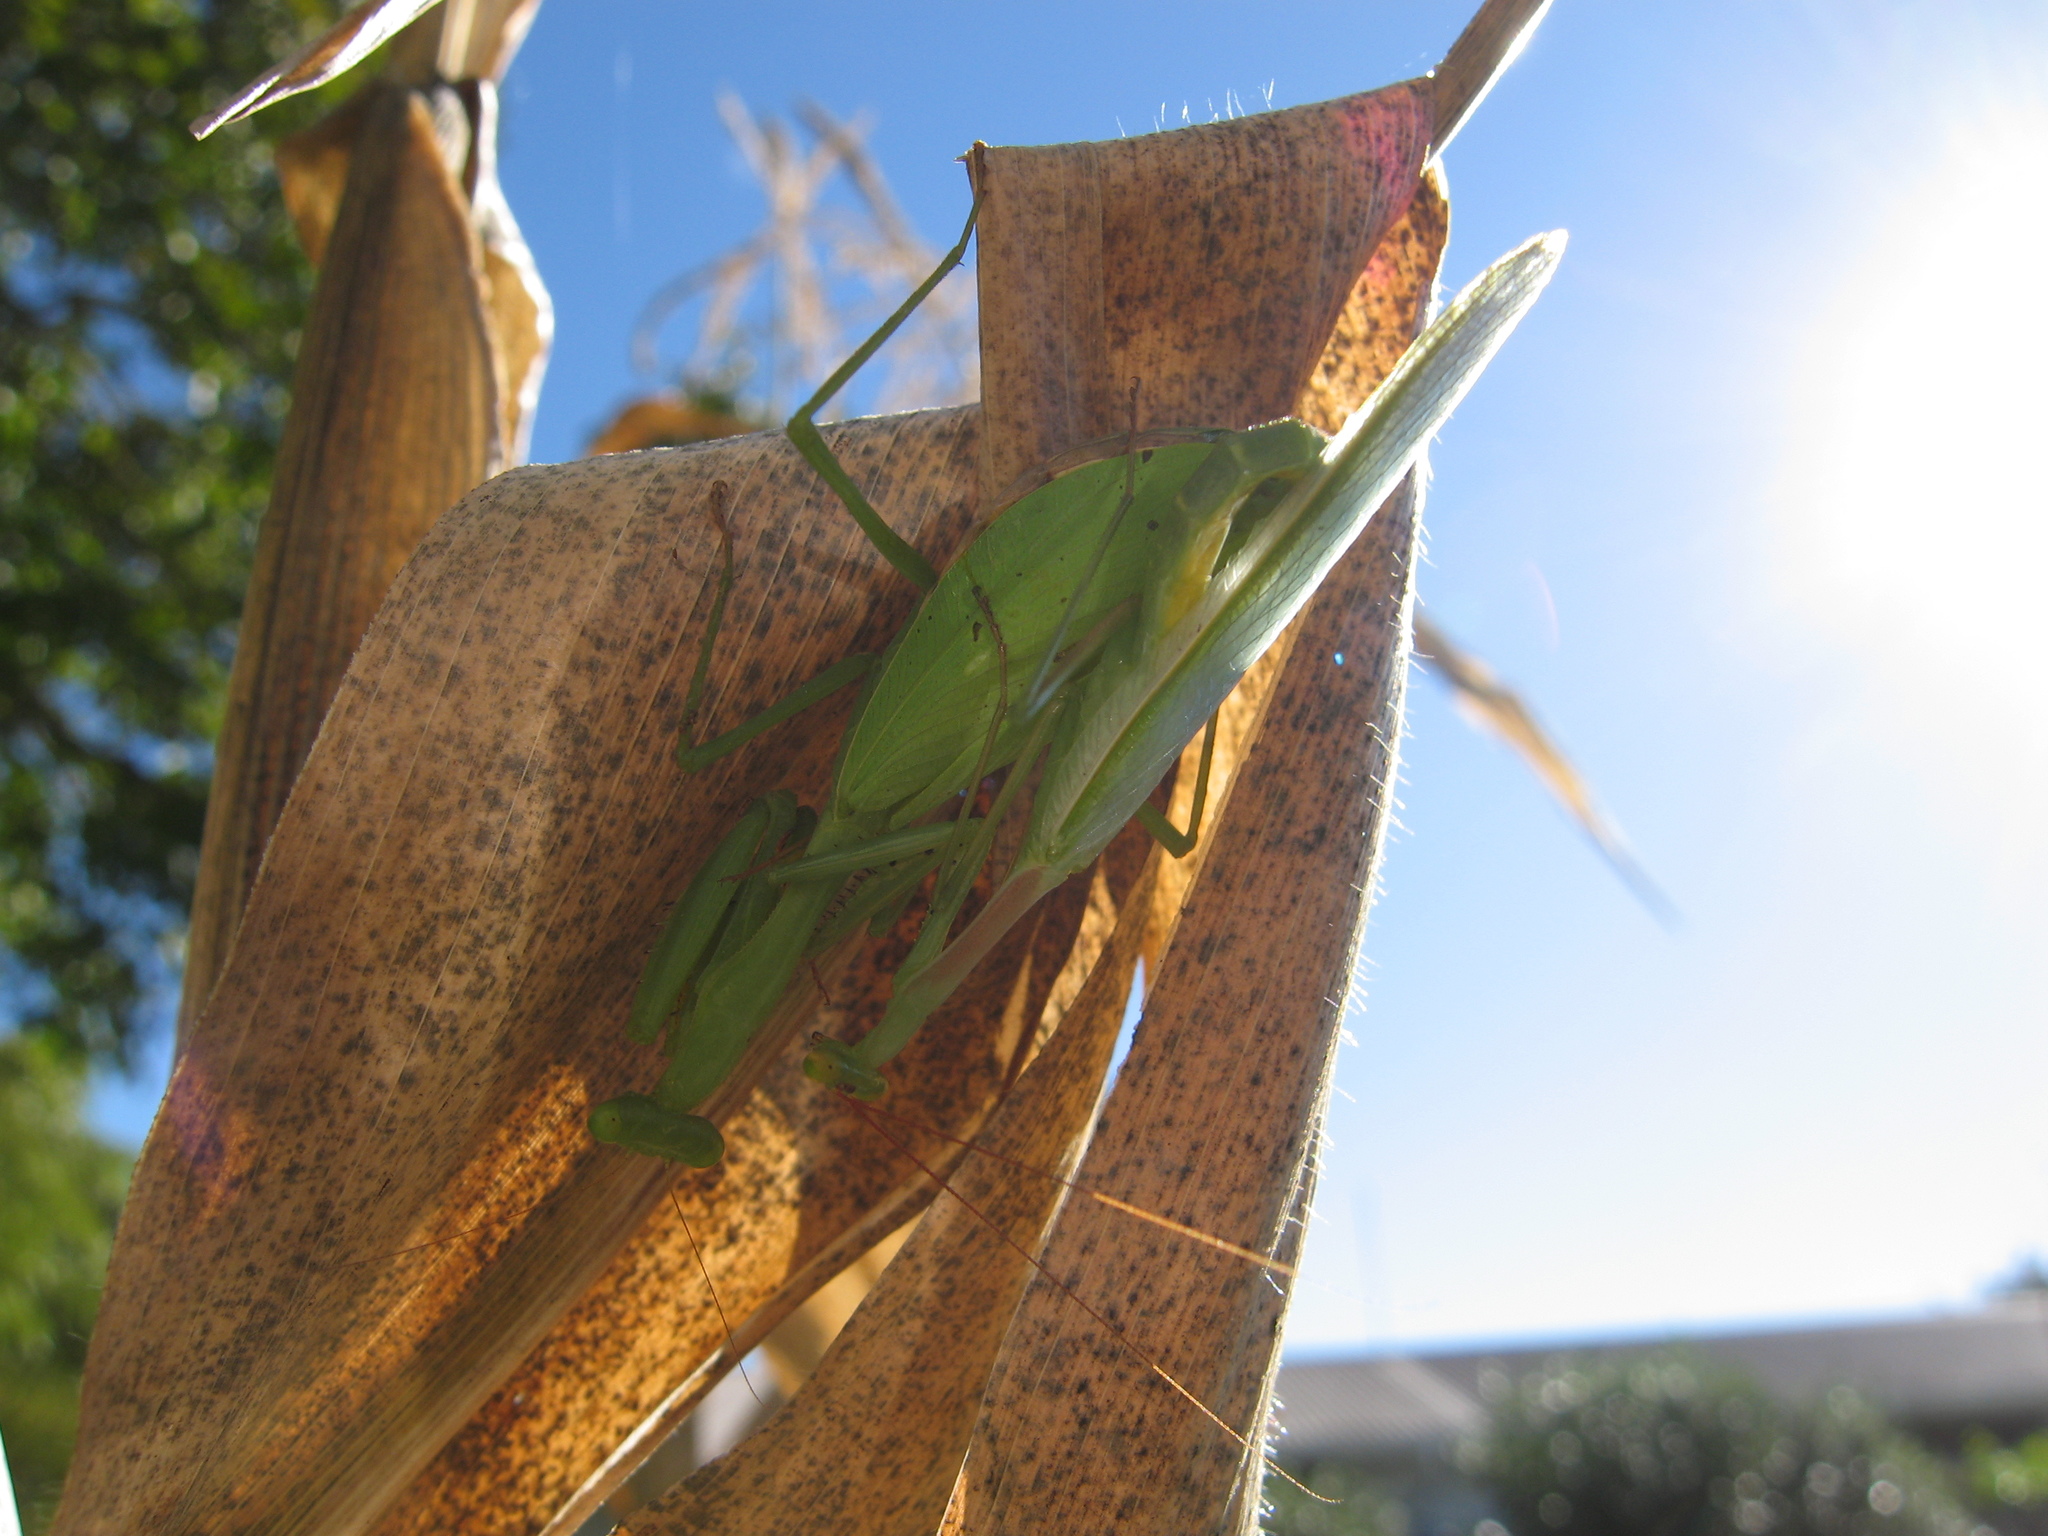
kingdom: Animalia
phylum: Arthropoda
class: Insecta
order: Mantodea
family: Miomantidae
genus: Miomantis
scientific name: Miomantis caffra
